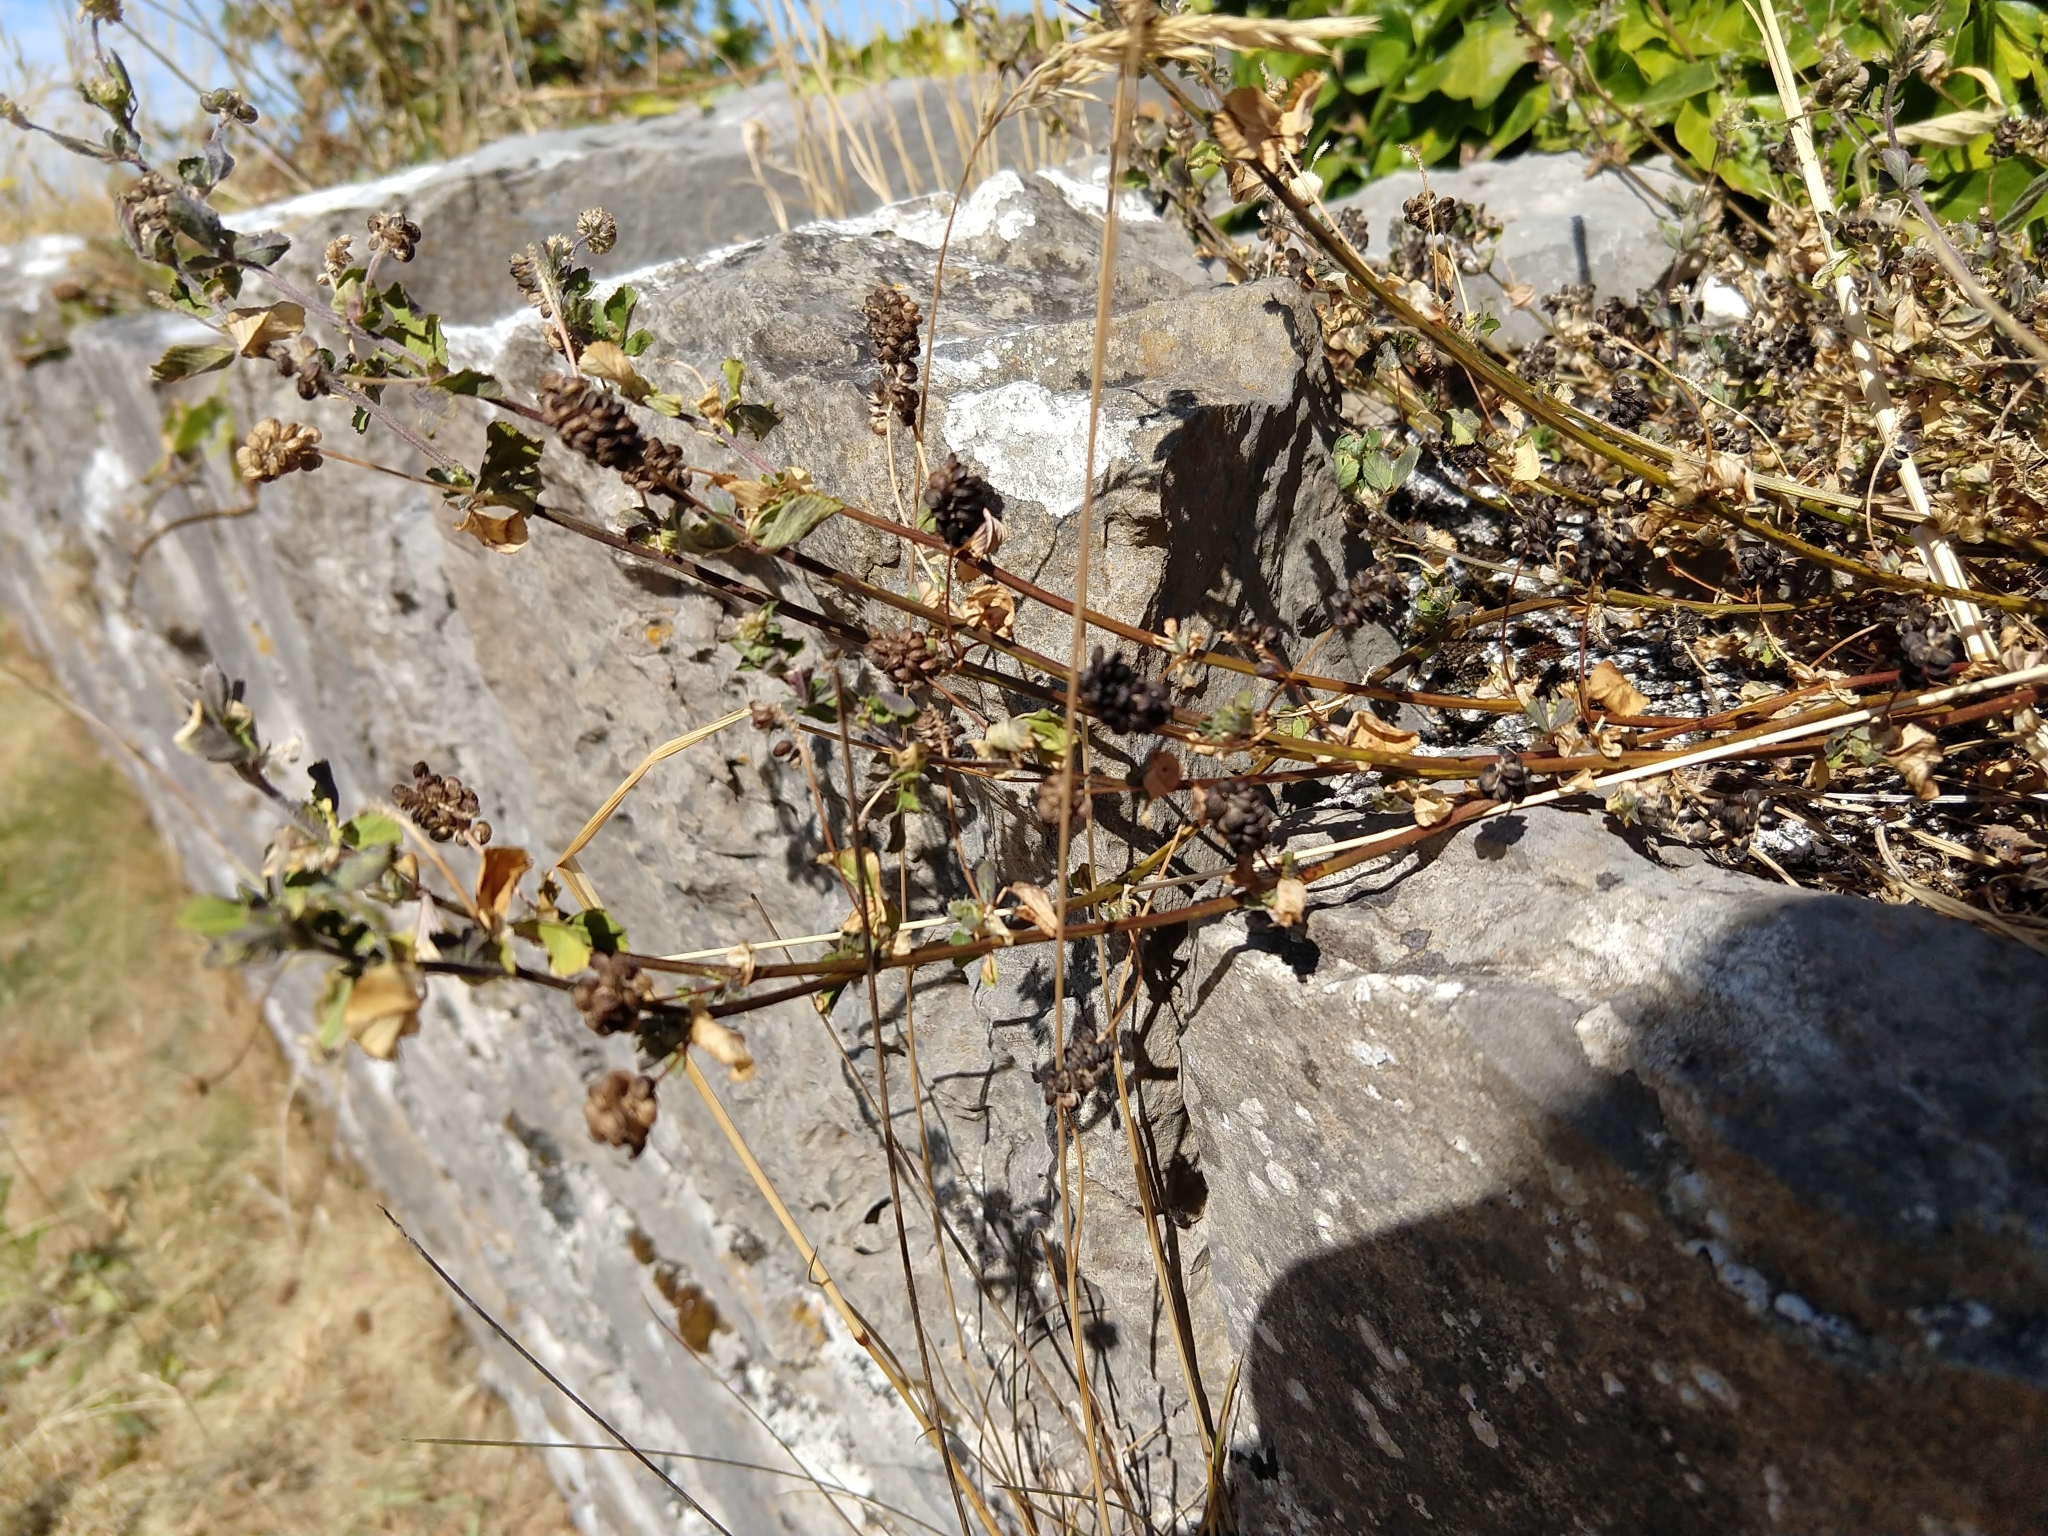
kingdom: Plantae
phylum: Tracheophyta
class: Magnoliopsida
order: Fabales
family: Fabaceae
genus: Medicago
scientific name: Medicago lupulina
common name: Black medick
